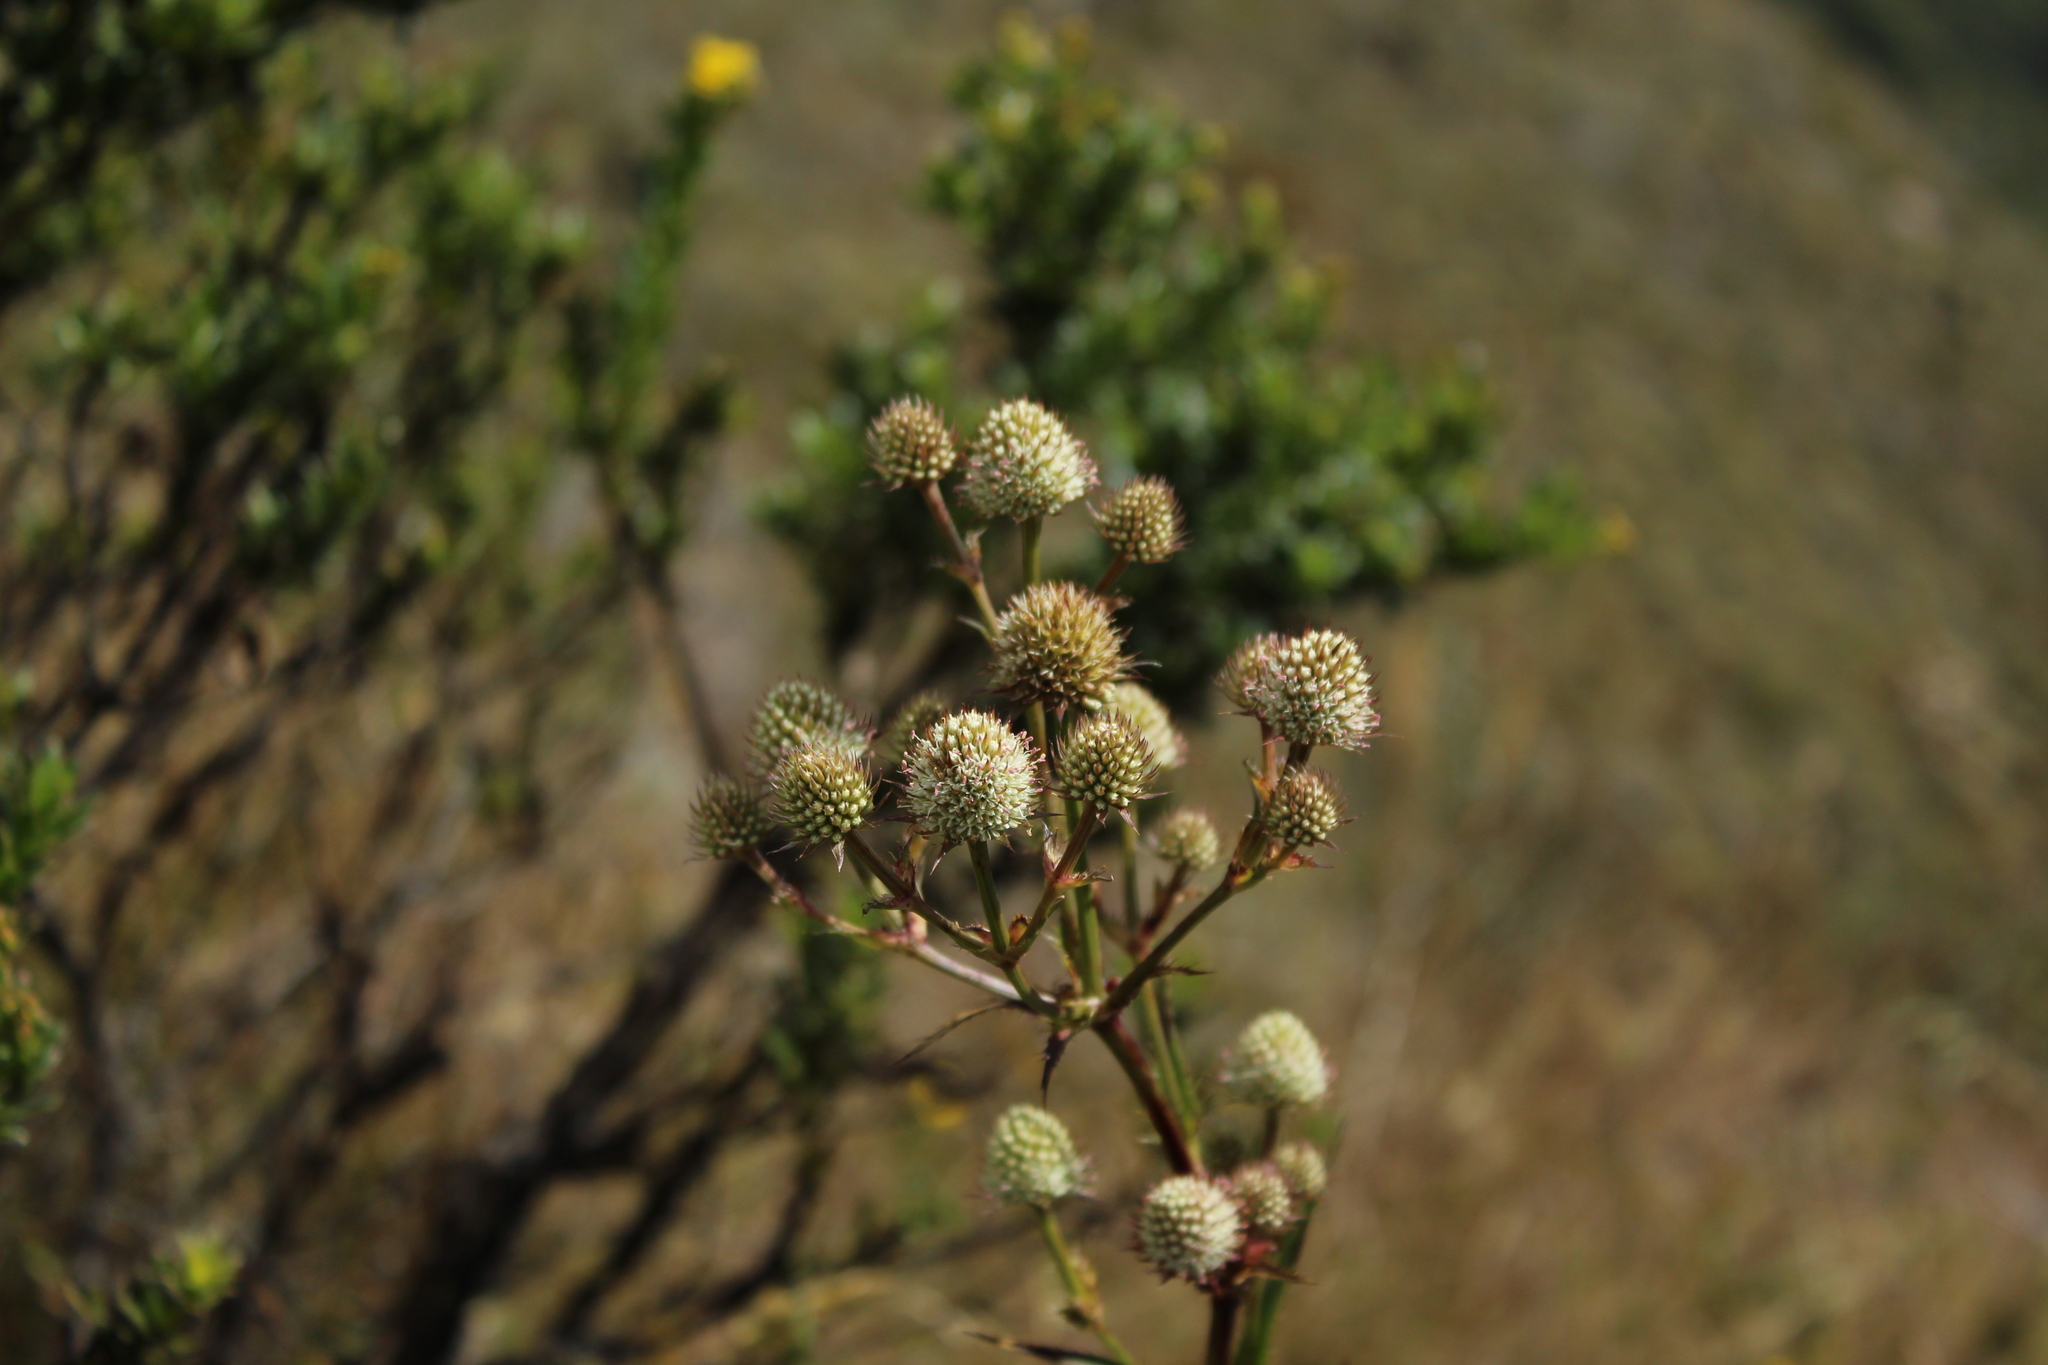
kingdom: Plantae
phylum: Tracheophyta
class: Magnoliopsida
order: Apiales
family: Apiaceae
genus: Eryngium
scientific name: Eryngium humboldtii
